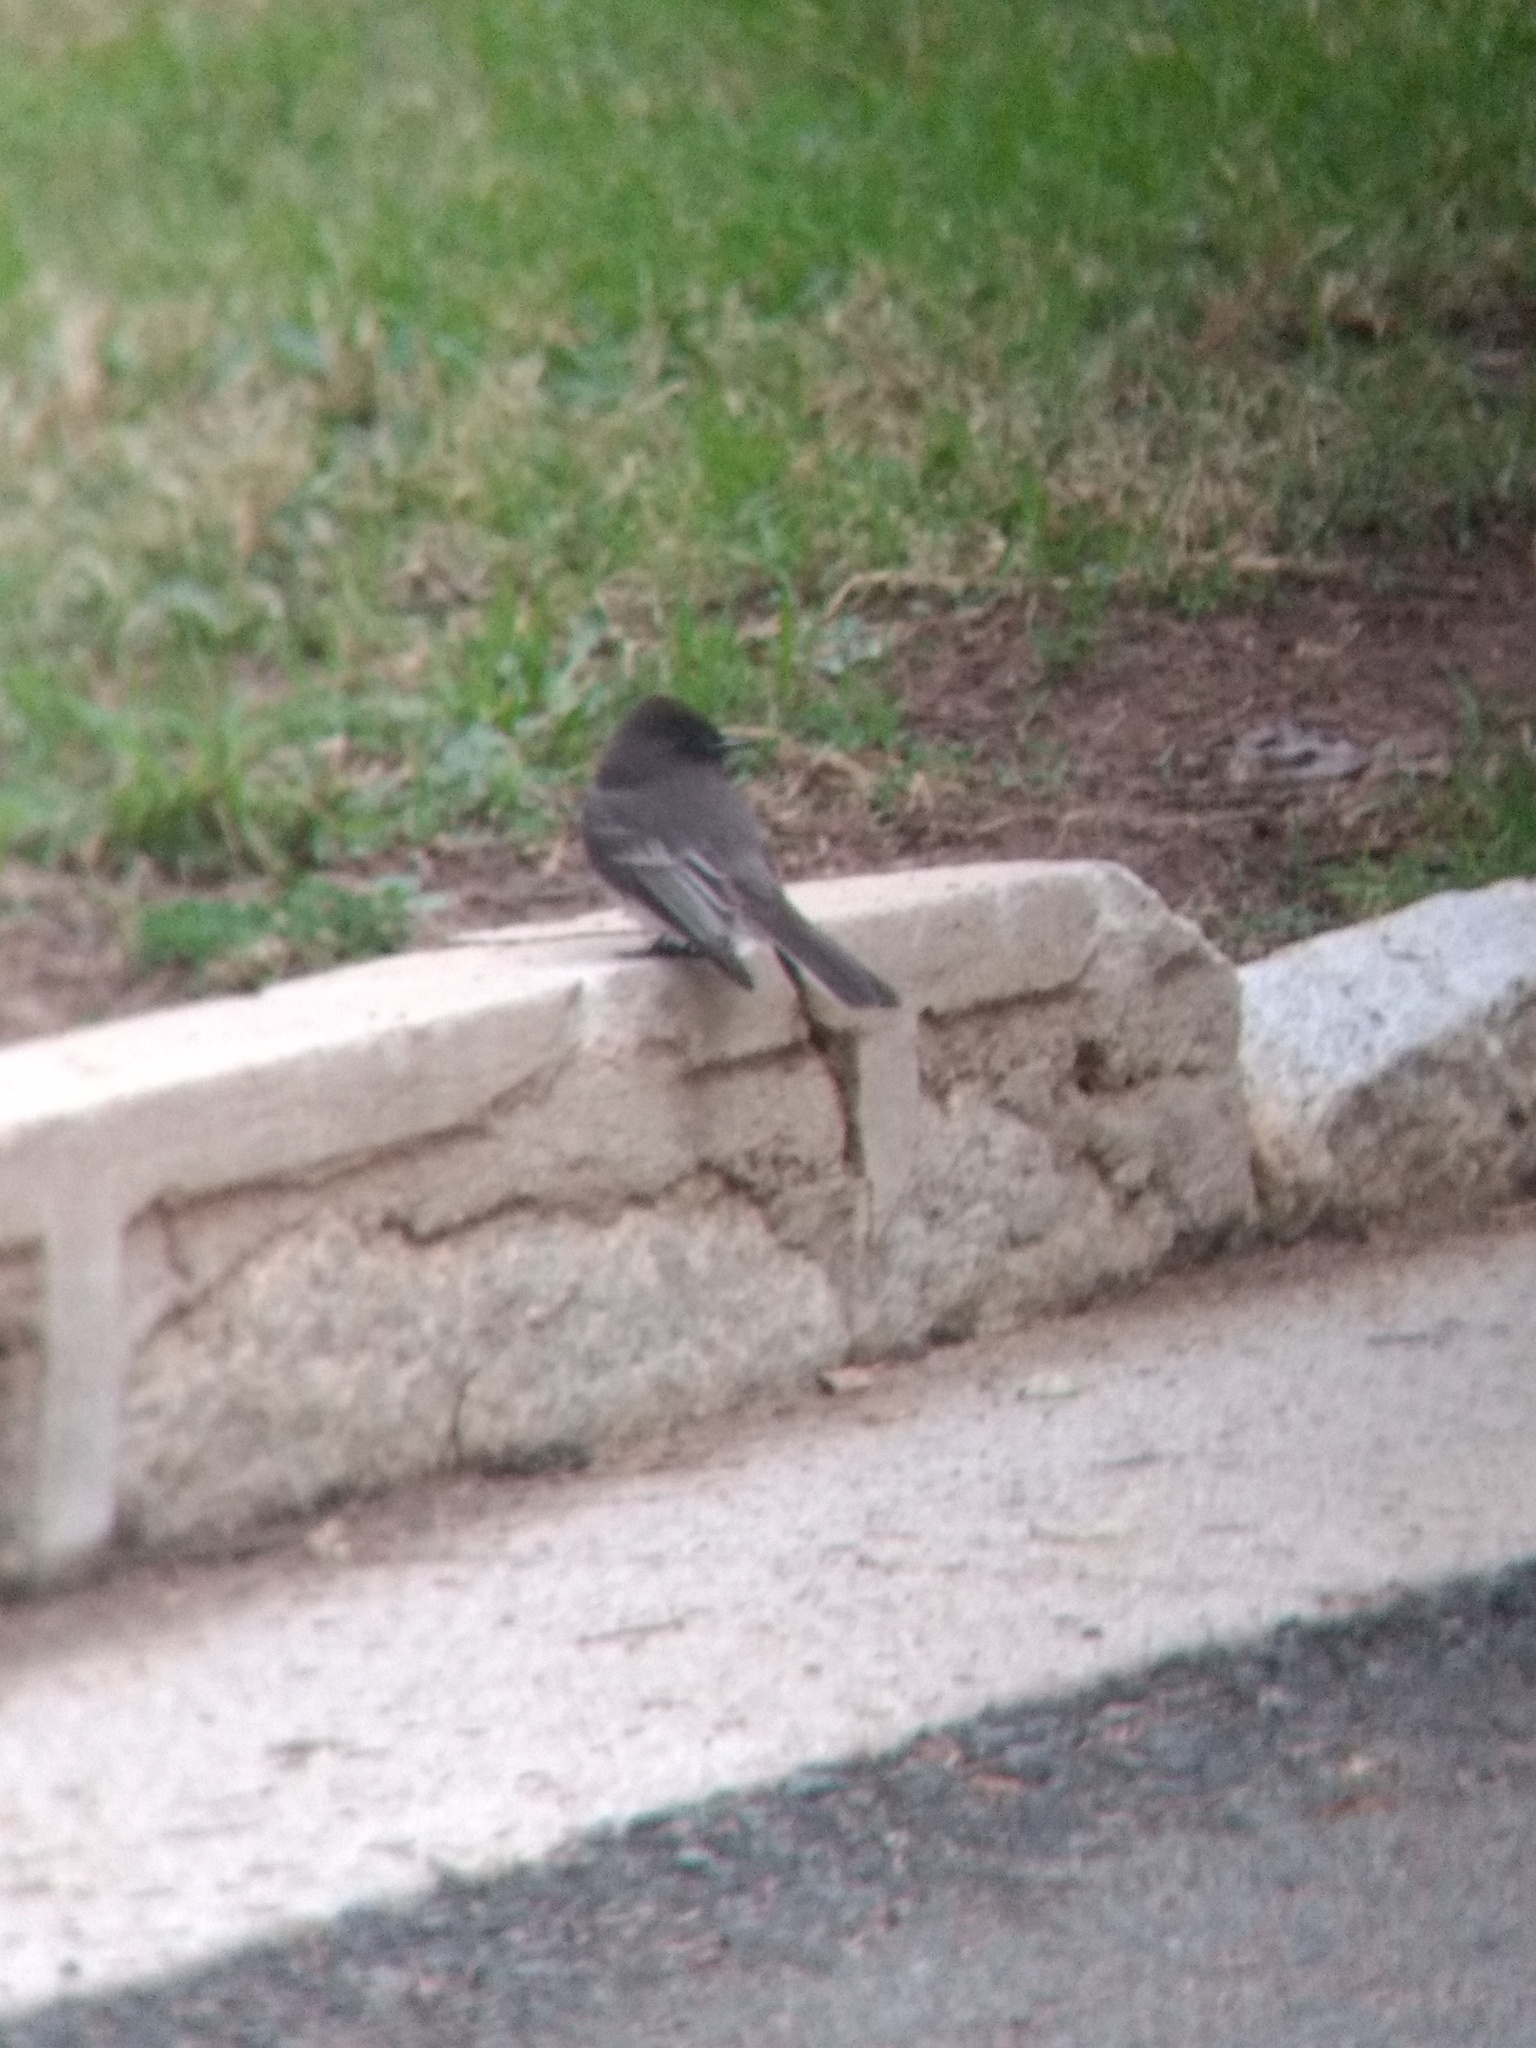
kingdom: Animalia
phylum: Chordata
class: Aves
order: Passeriformes
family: Tyrannidae
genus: Sayornis
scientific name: Sayornis nigricans
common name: Black phoebe
